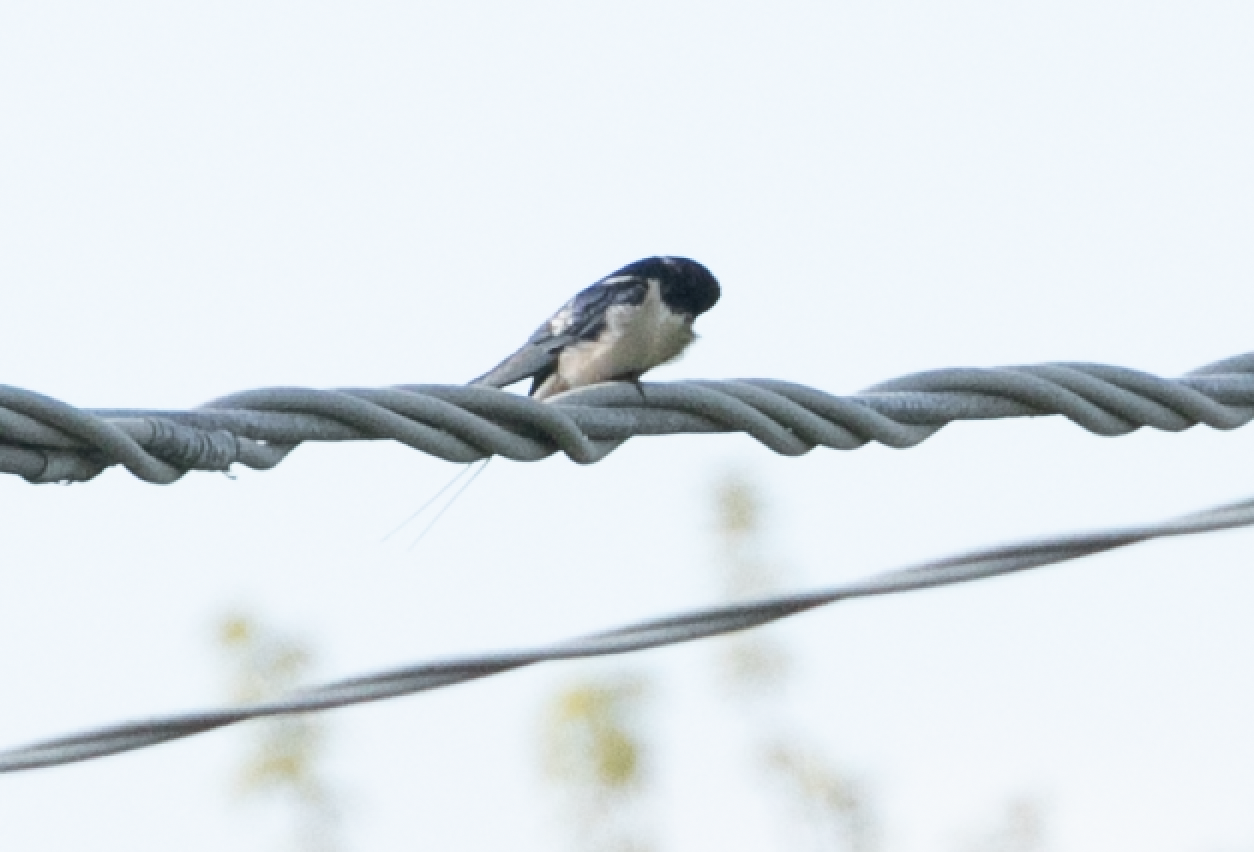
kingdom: Animalia
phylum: Chordata
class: Aves
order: Passeriformes
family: Hirundinidae
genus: Hirundo
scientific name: Hirundo rustica
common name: Barn swallow
